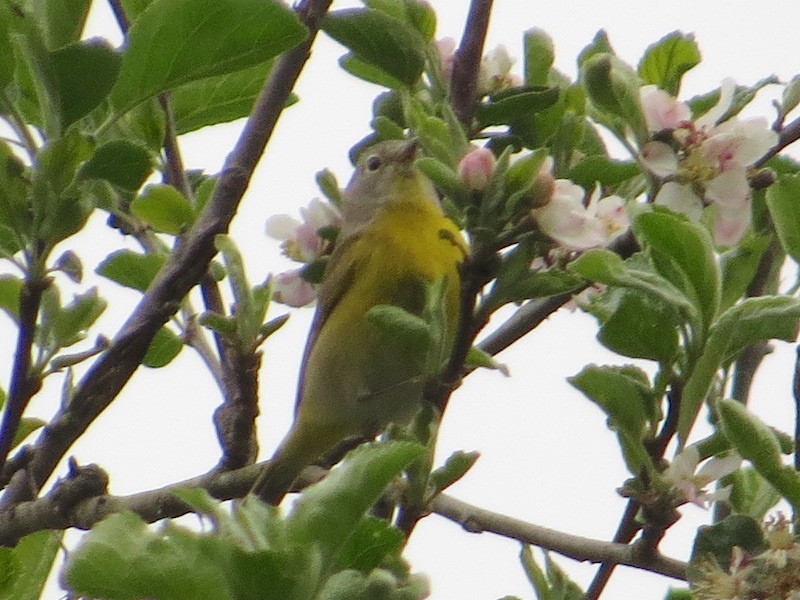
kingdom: Animalia
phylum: Chordata
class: Aves
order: Passeriformes
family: Parulidae
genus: Leiothlypis
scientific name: Leiothlypis ruficapilla
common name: Nashville warbler
